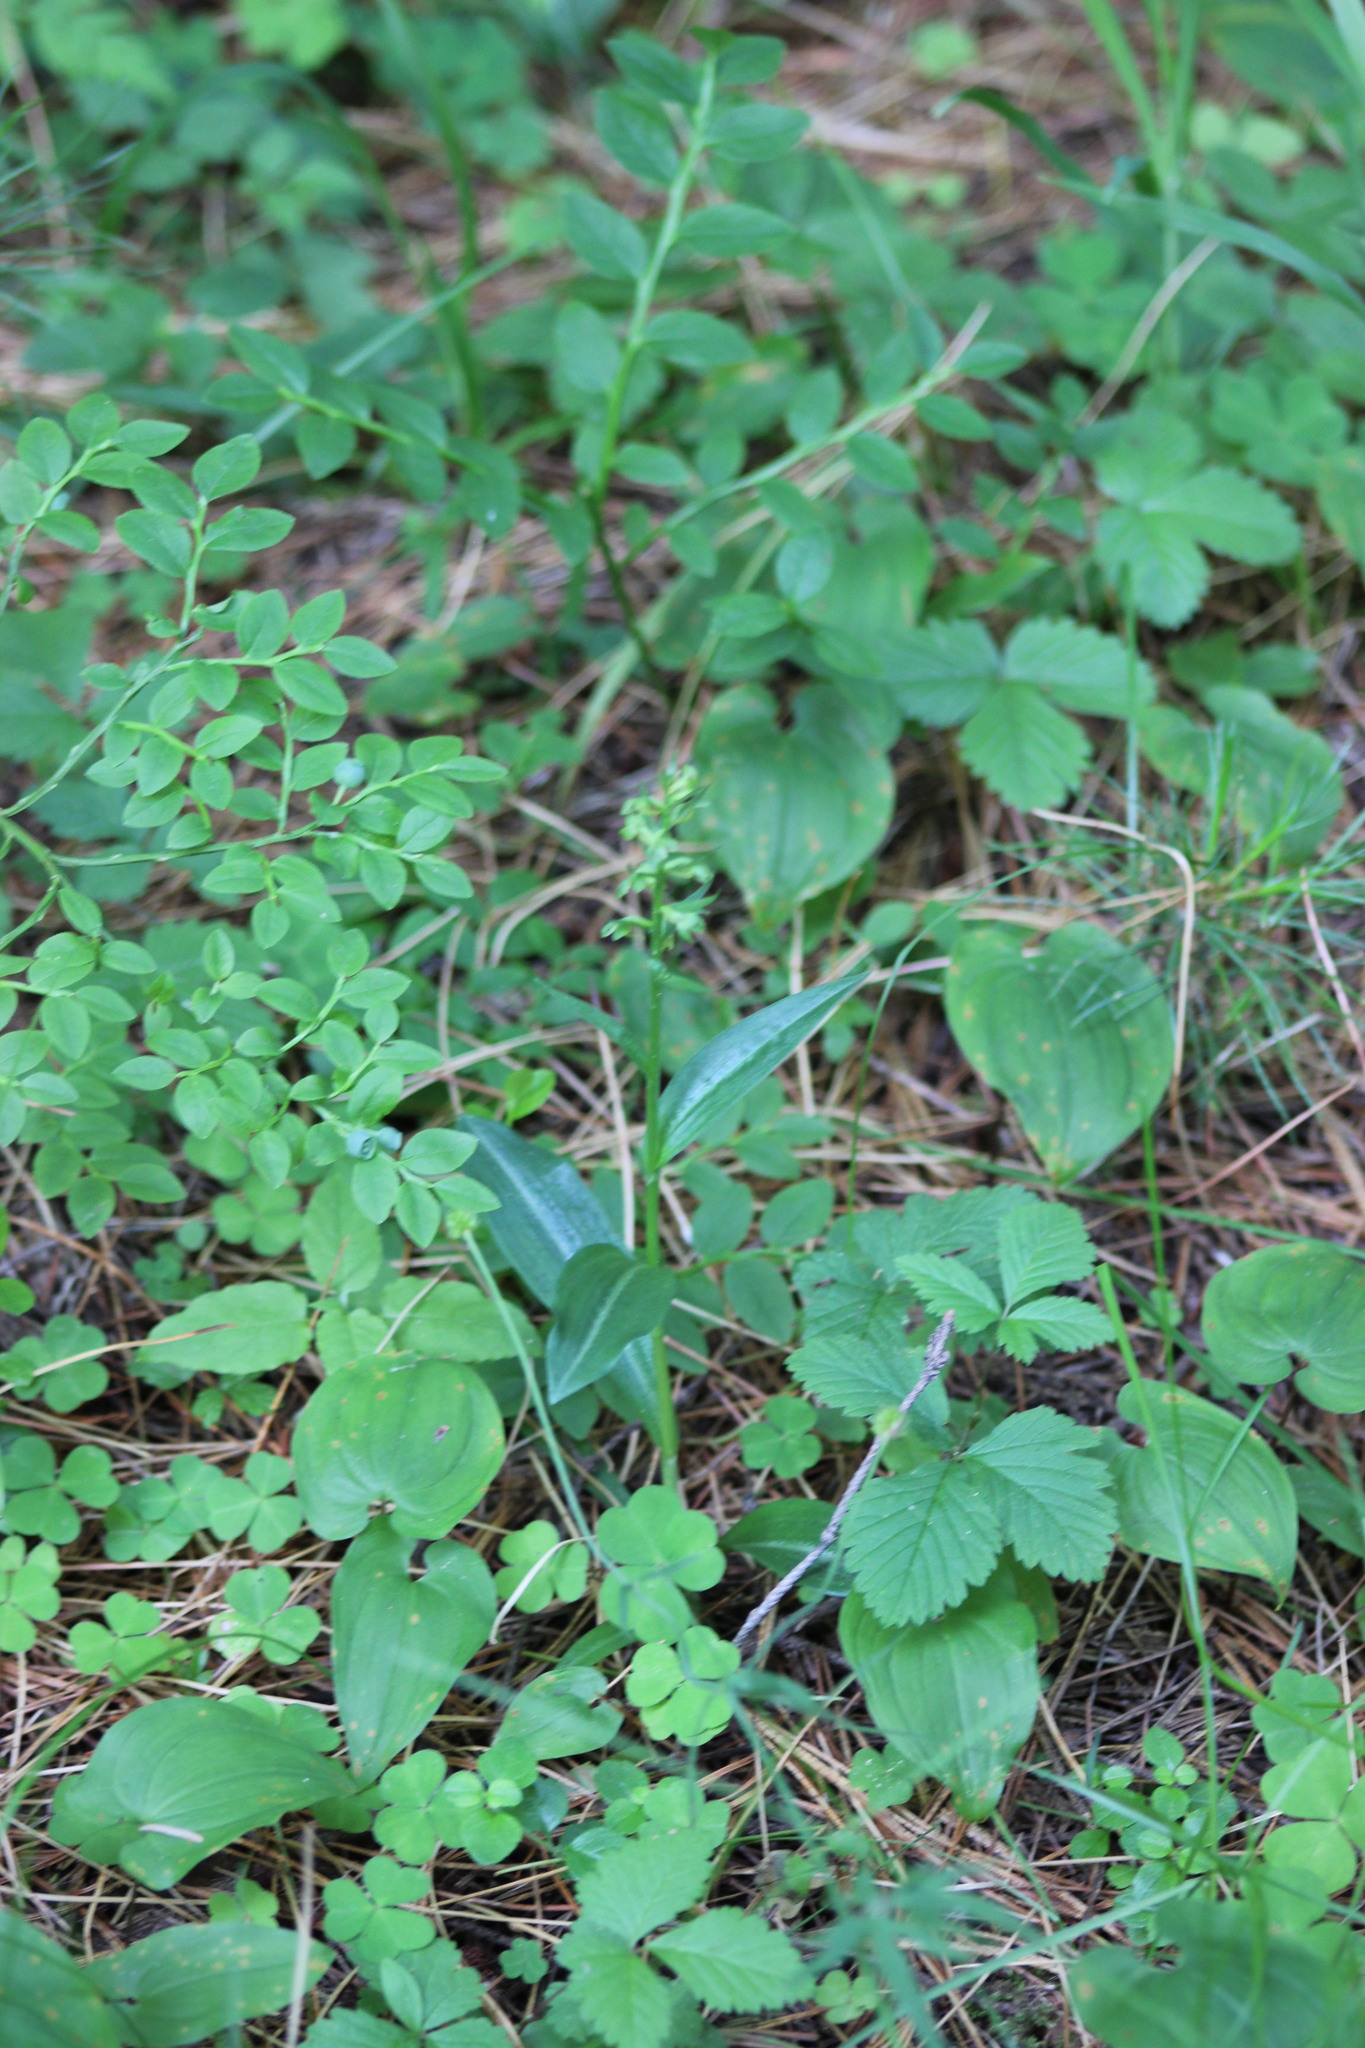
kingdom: Plantae
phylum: Tracheophyta
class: Liliopsida
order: Asparagales
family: Orchidaceae
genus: Dactylorhiza
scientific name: Dactylorhiza viridis
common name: Longbract frog orchid
